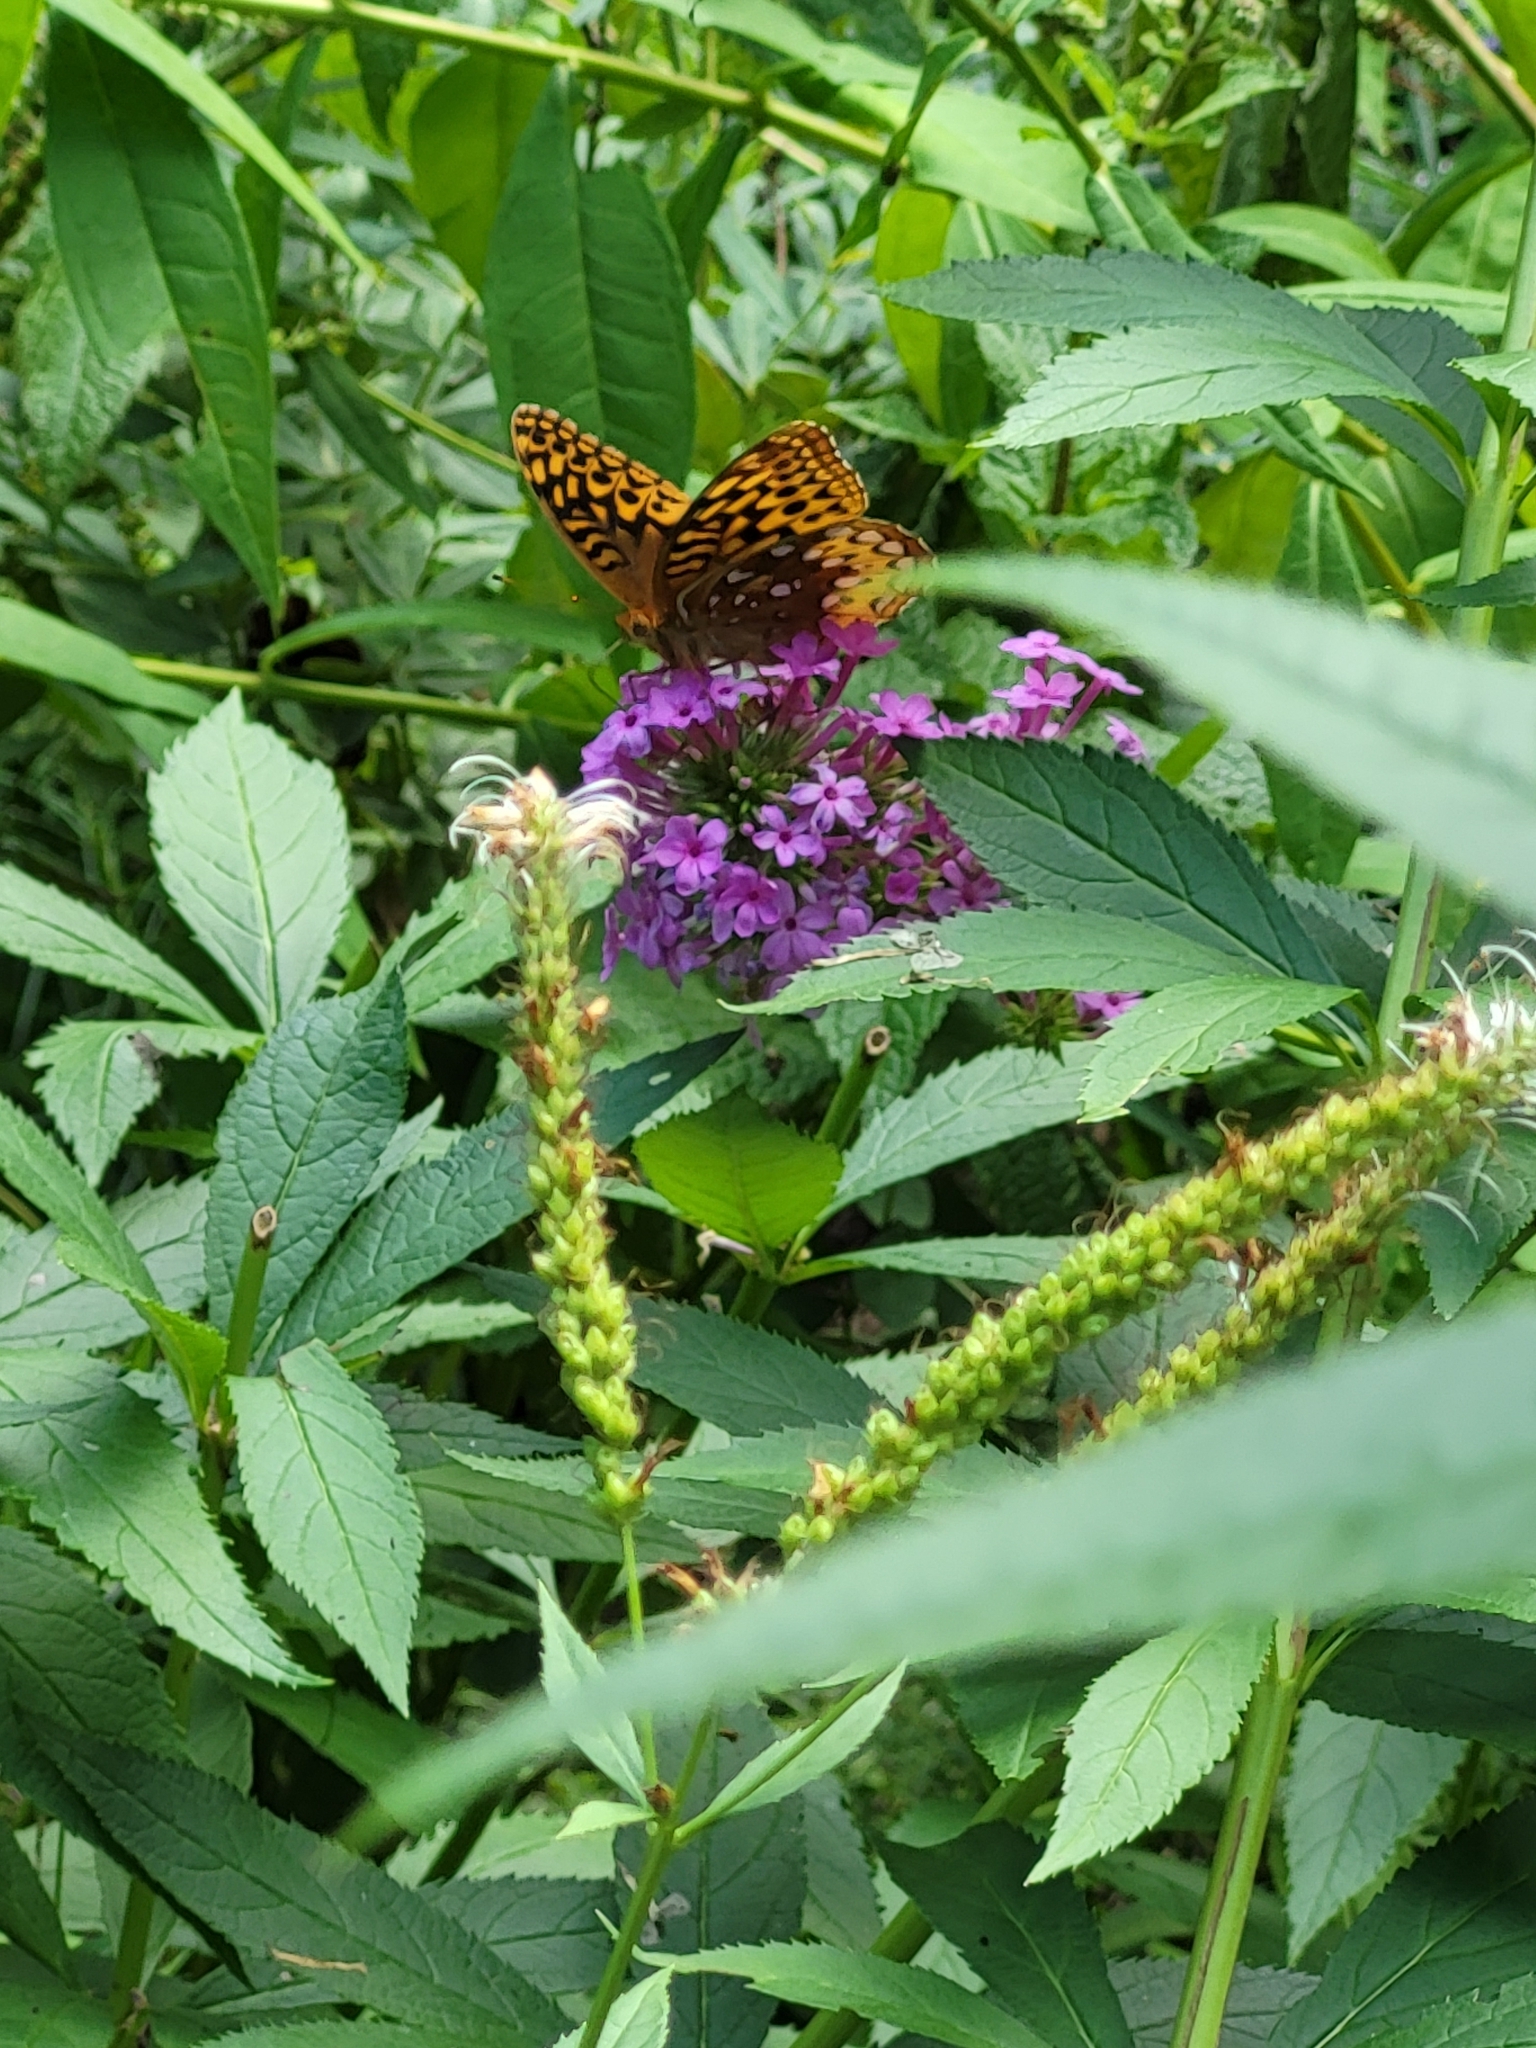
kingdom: Animalia
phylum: Arthropoda
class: Insecta
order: Lepidoptera
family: Nymphalidae
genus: Speyeria
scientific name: Speyeria cybele
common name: Great spangled fritillary
